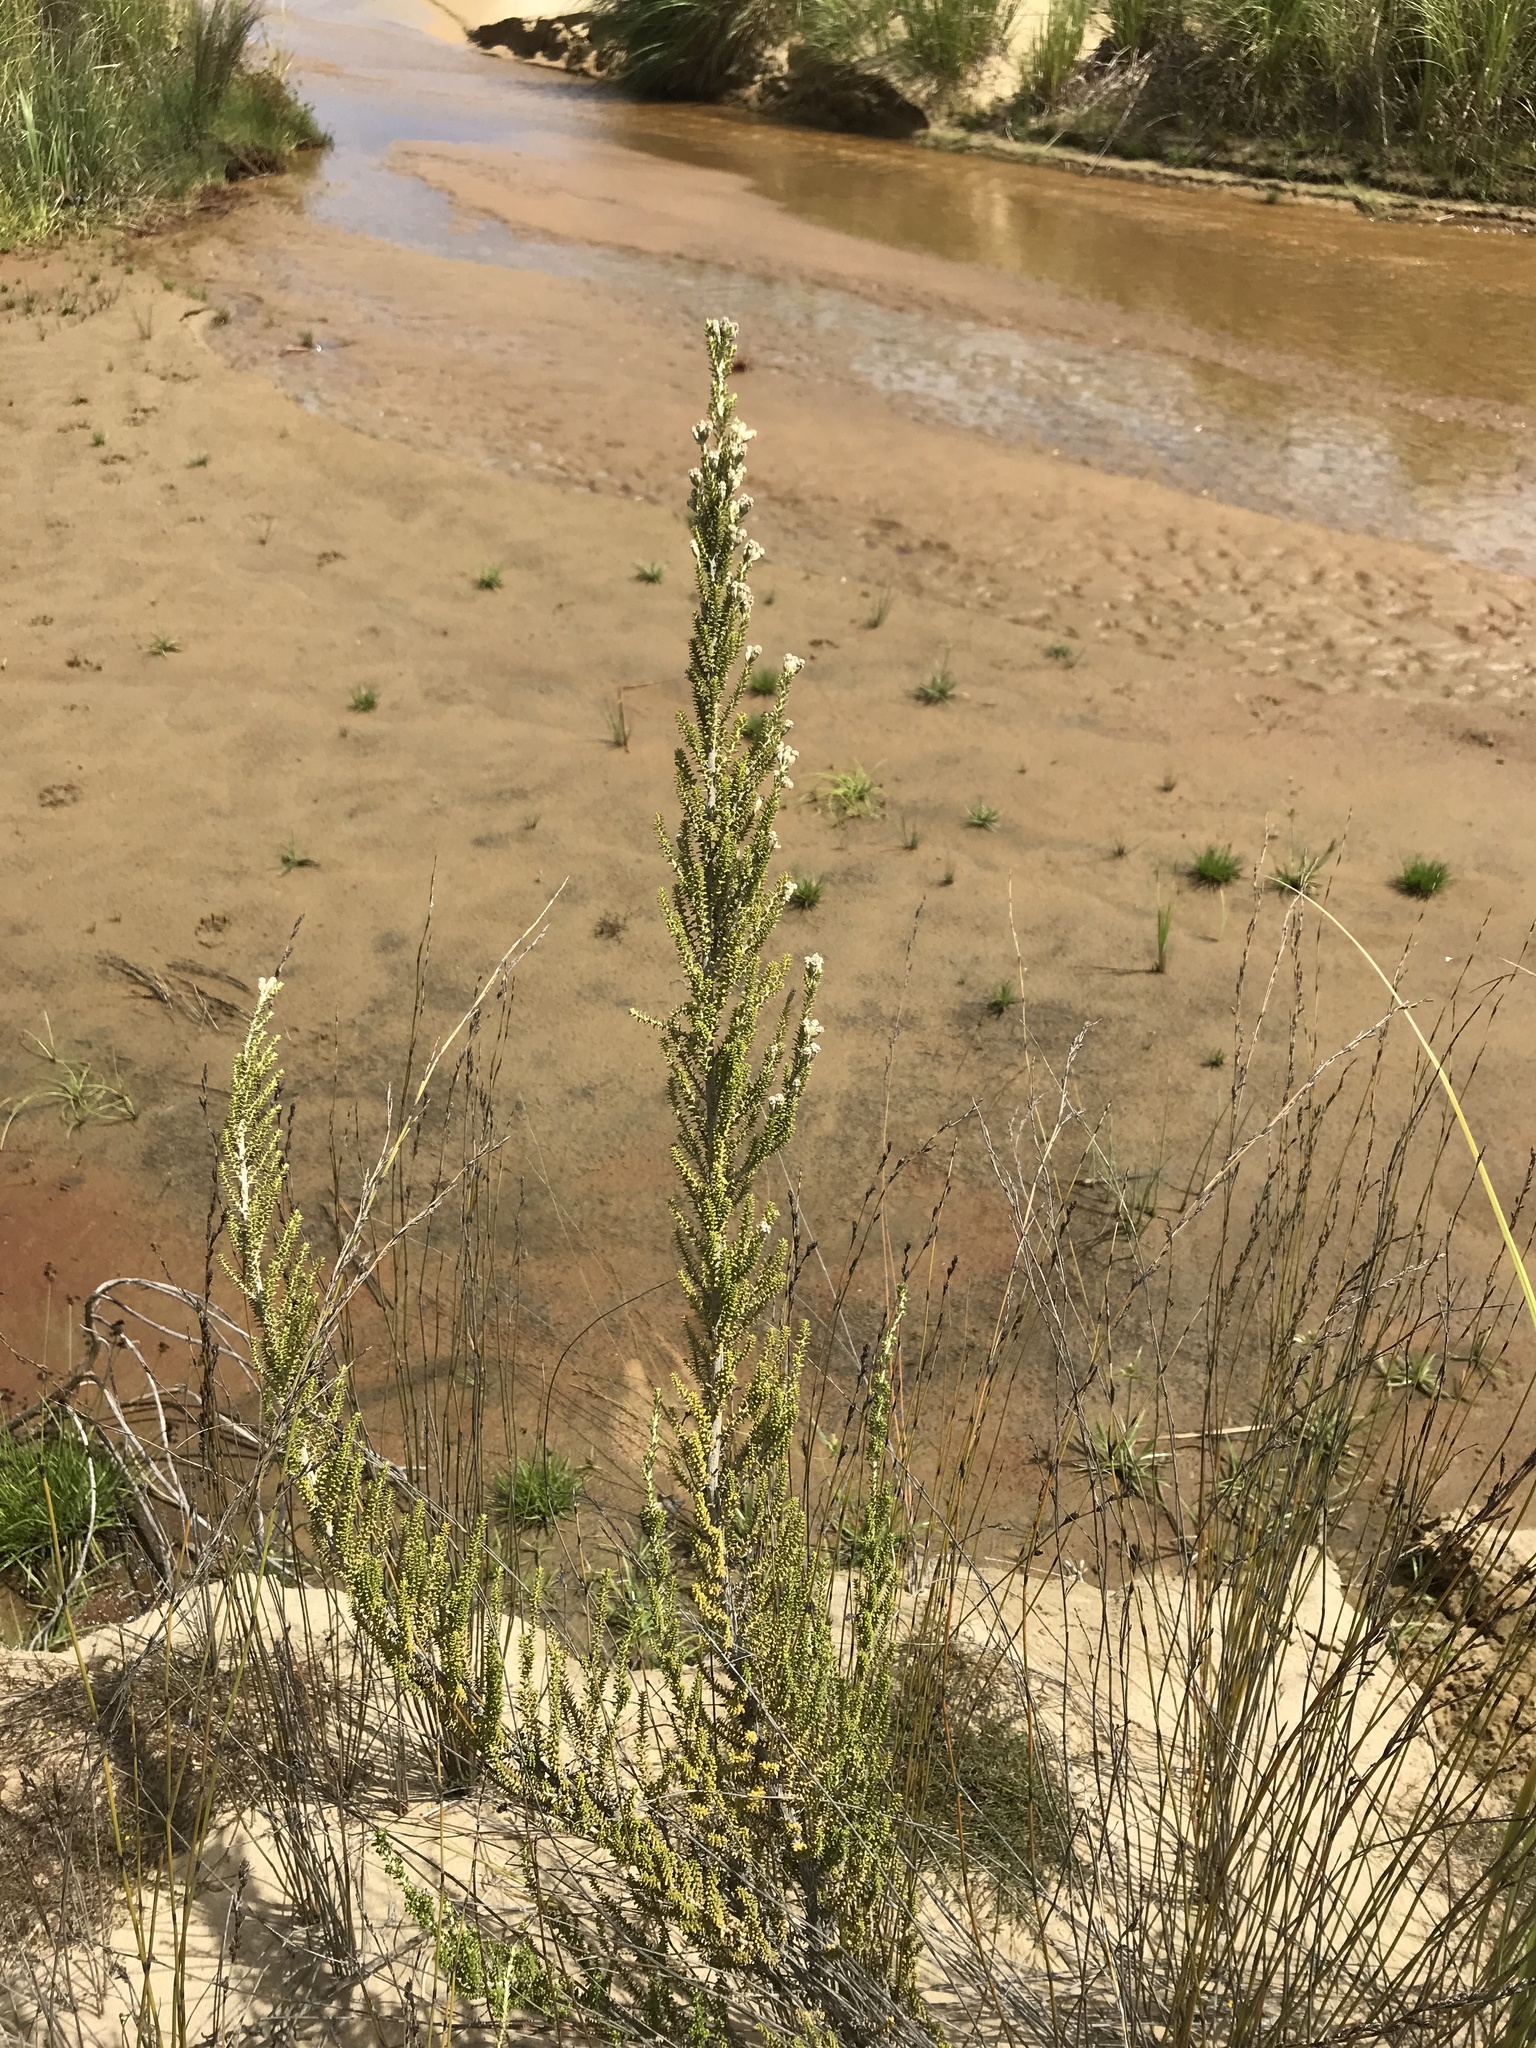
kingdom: Plantae
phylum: Tracheophyta
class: Magnoliopsida
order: Asterales
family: Asteraceae
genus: Ozothamnus
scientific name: Ozothamnus leptophyllus
